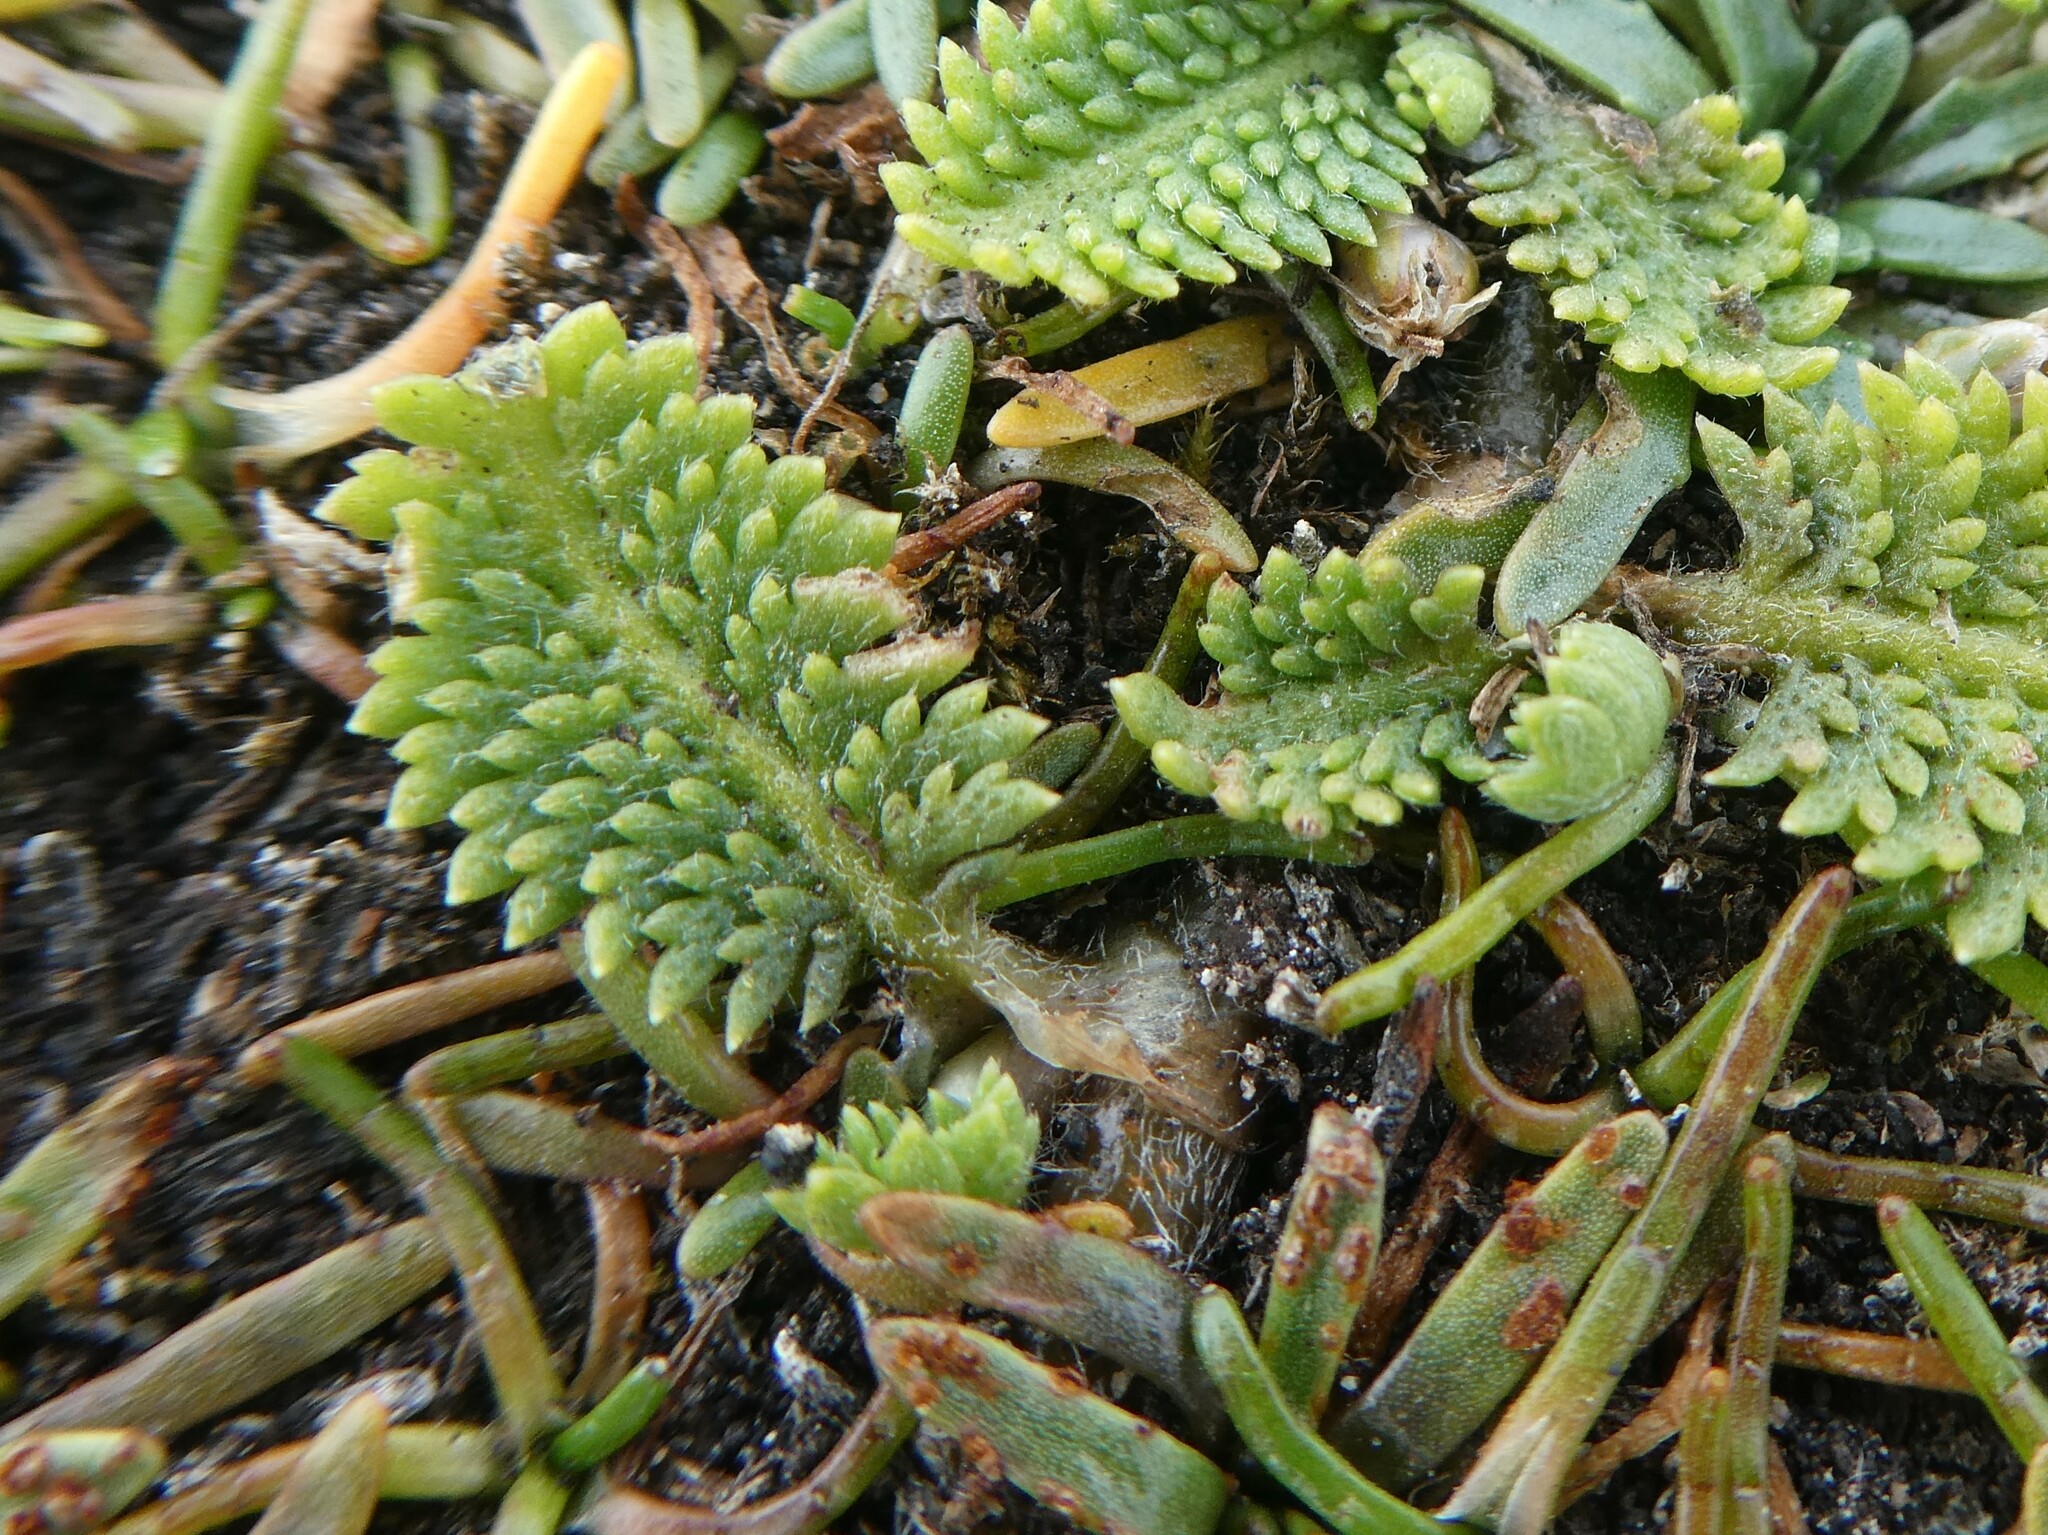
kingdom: Plantae
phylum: Tracheophyta
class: Magnoliopsida
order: Asterales
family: Asteraceae
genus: Leptinella
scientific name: Leptinella scariosa
